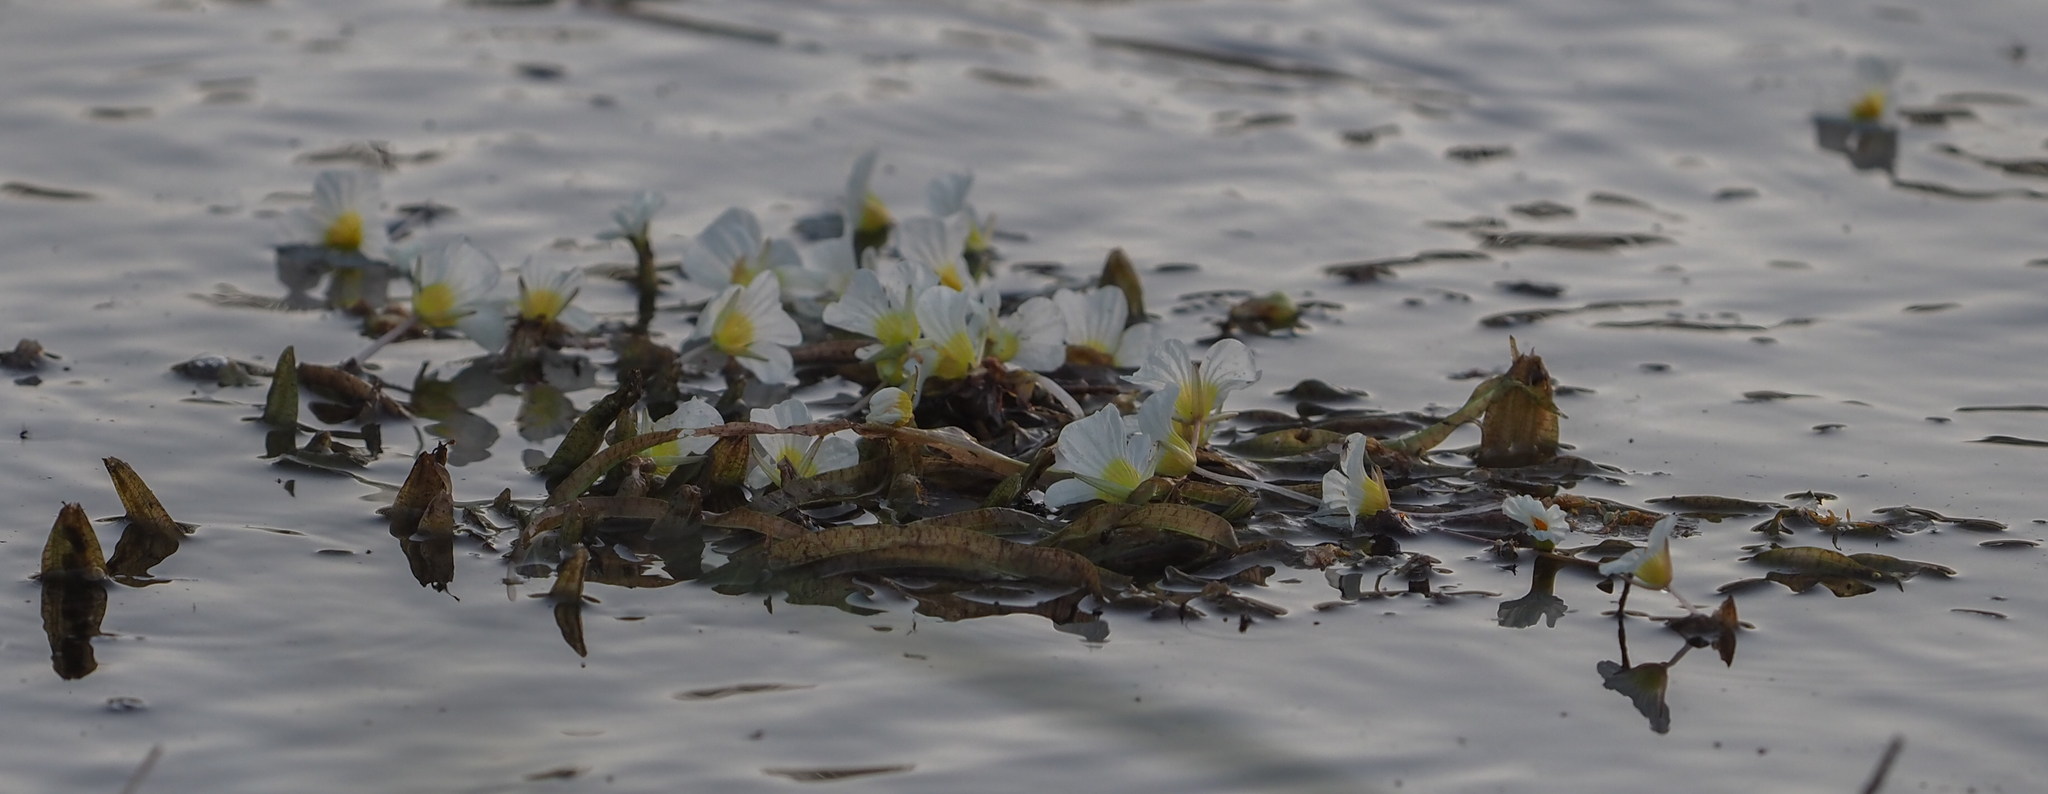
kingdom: Plantae
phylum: Tracheophyta
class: Liliopsida
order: Alismatales
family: Hydrocharitaceae
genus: Ottelia
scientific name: Ottelia kunenensis
